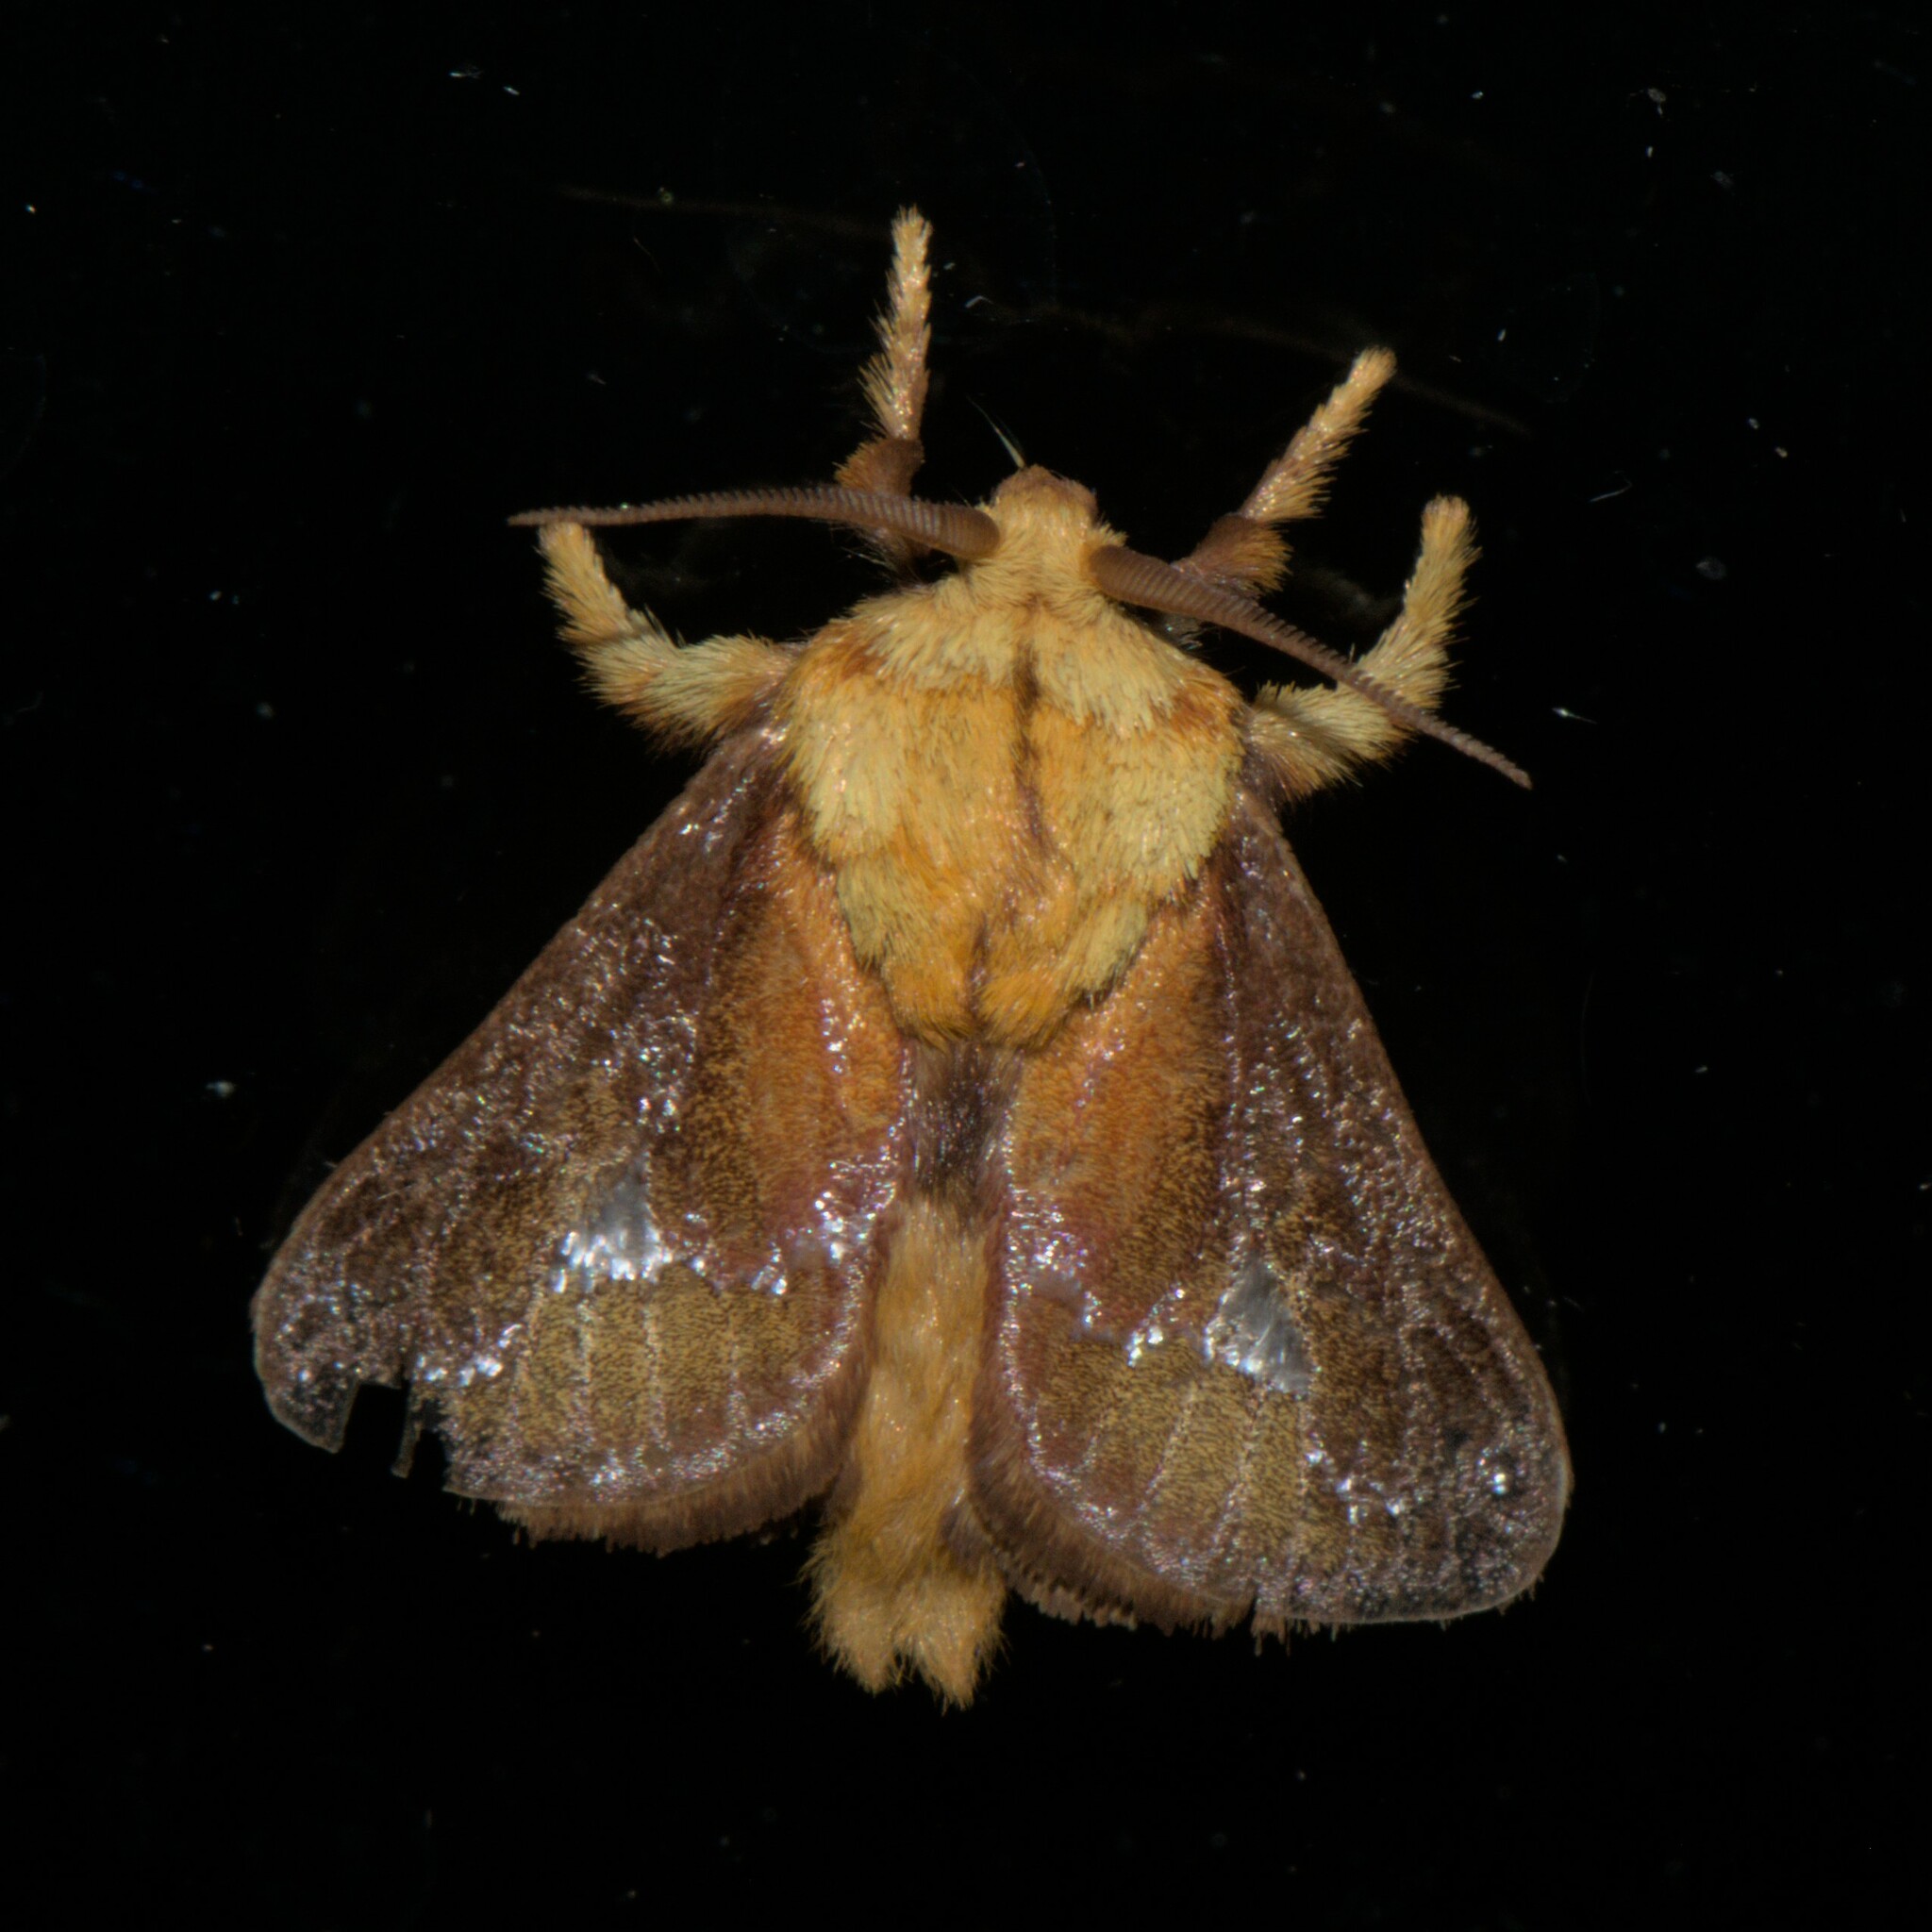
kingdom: Animalia
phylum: Arthropoda
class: Insecta
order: Lepidoptera
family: Limacodidae
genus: Miresa
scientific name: Miresa bracteata
